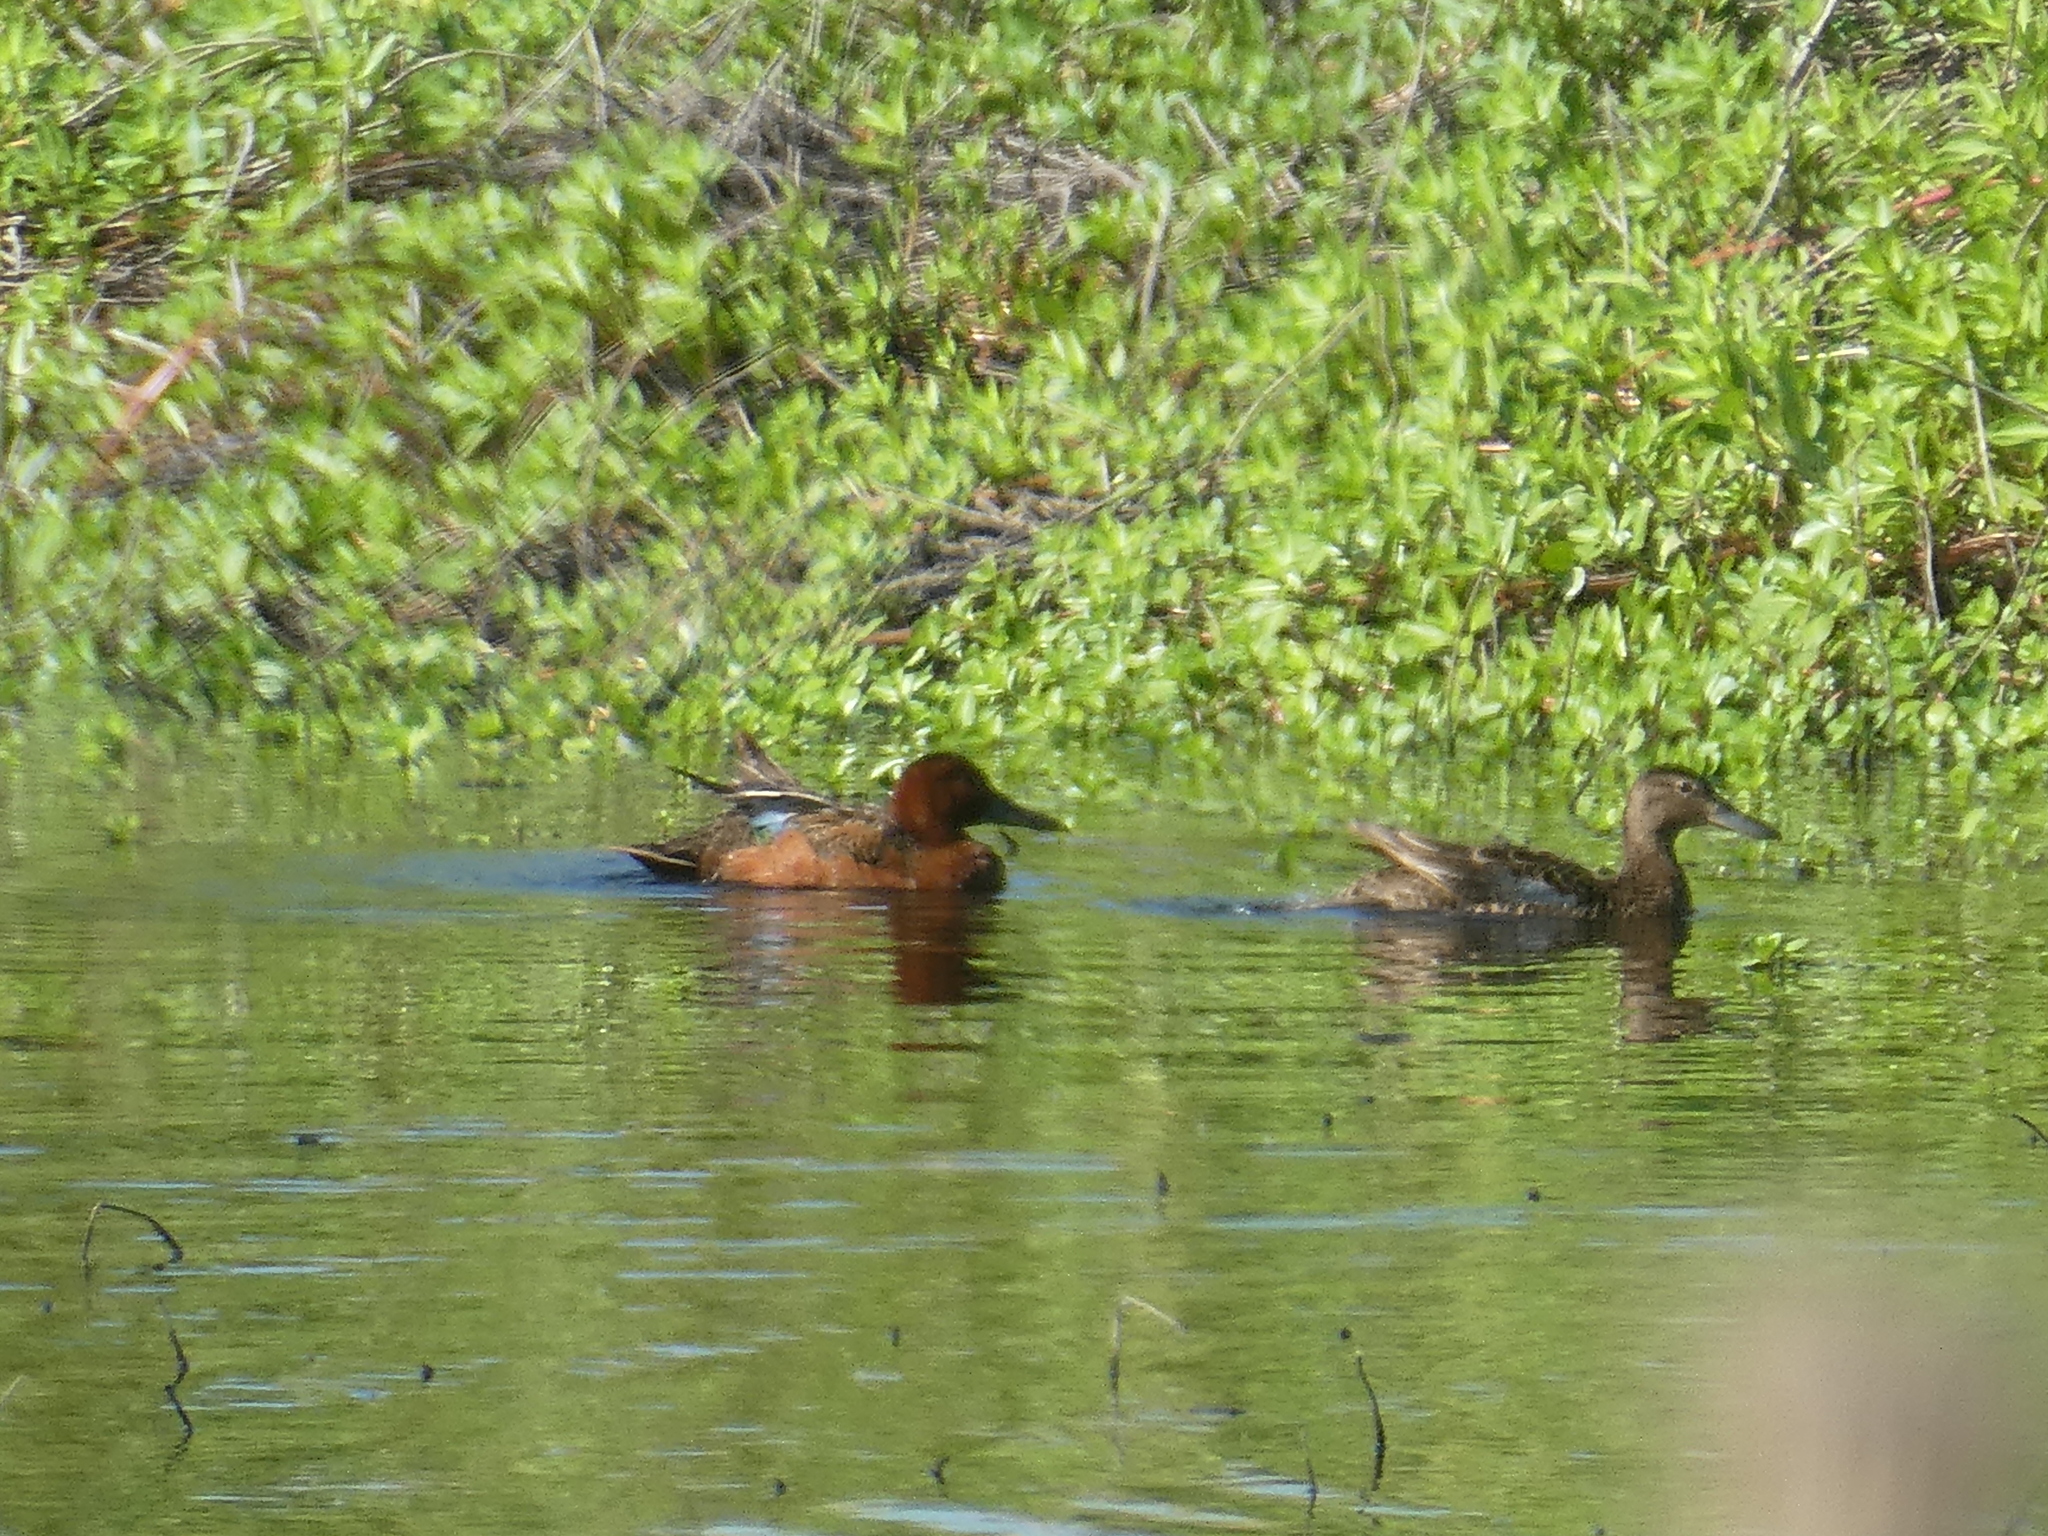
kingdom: Animalia
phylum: Chordata
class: Aves
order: Anseriformes
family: Anatidae
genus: Spatula
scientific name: Spatula cyanoptera
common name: Cinnamon teal
